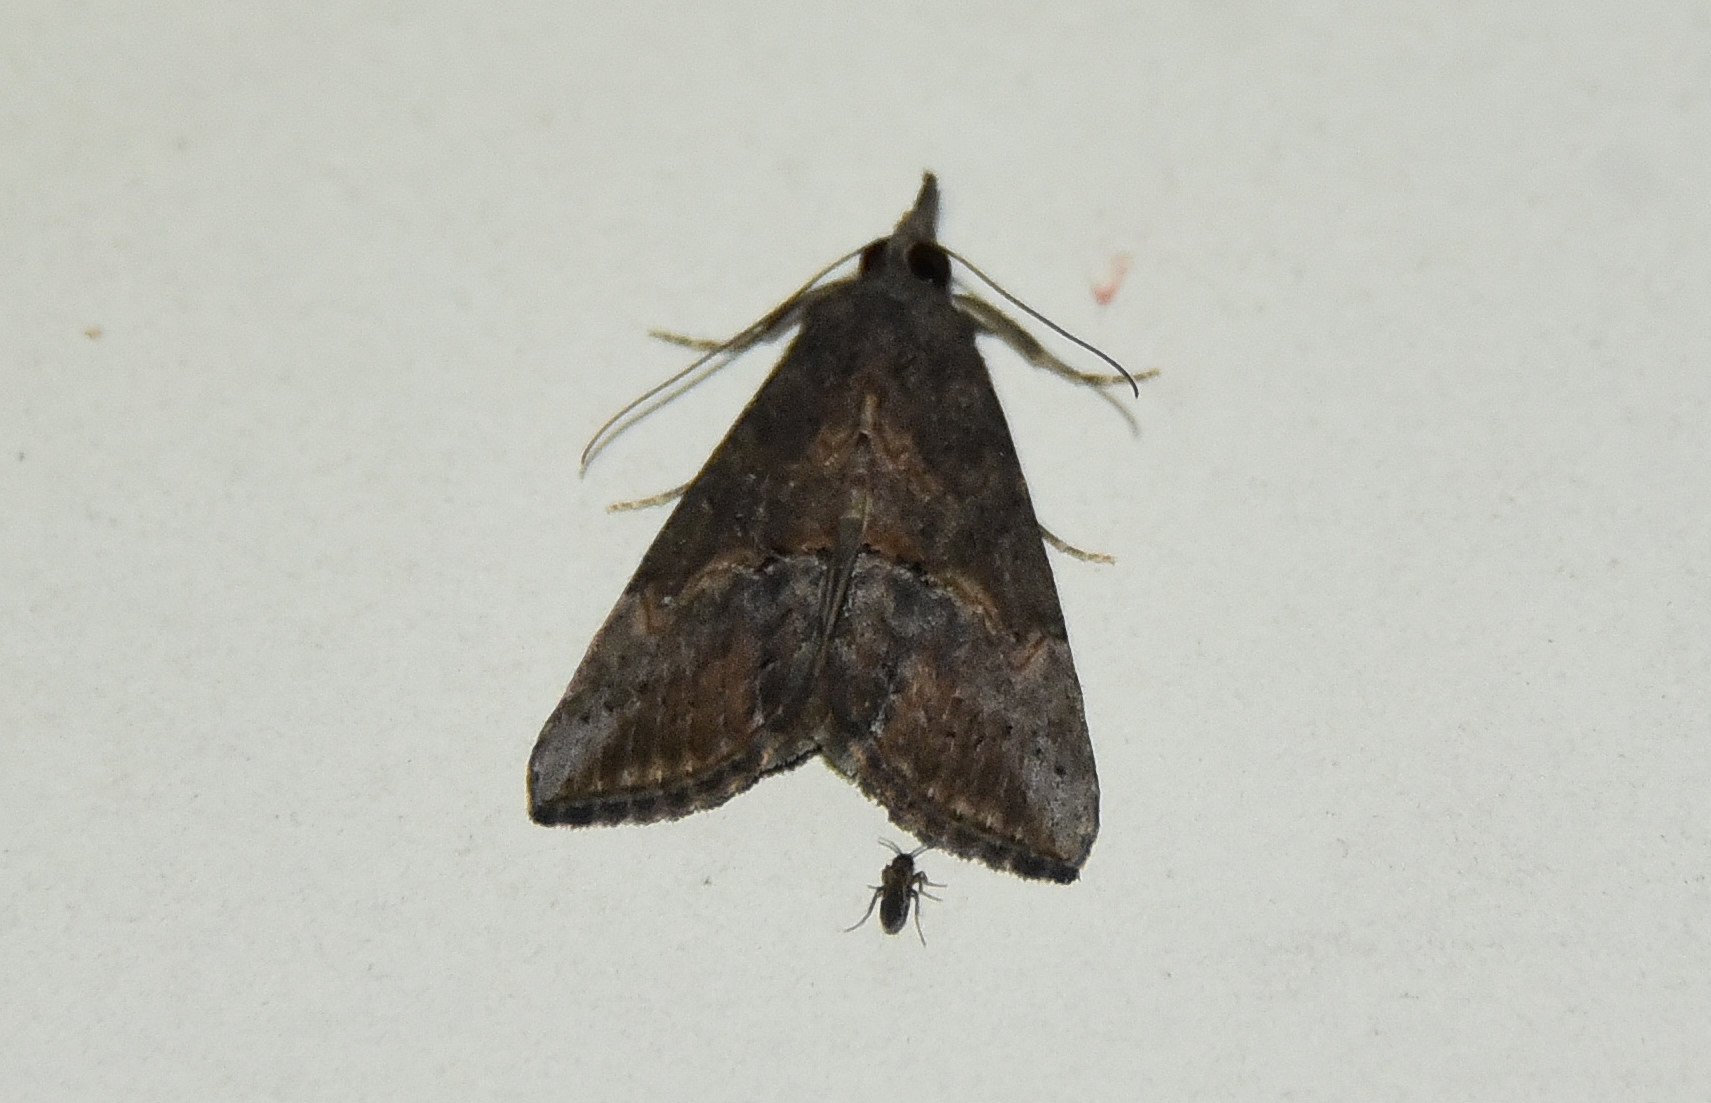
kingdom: Animalia
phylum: Arthropoda
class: Insecta
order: Lepidoptera
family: Erebidae
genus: Hypena
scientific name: Hypena scabra
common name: Green cloverworm
